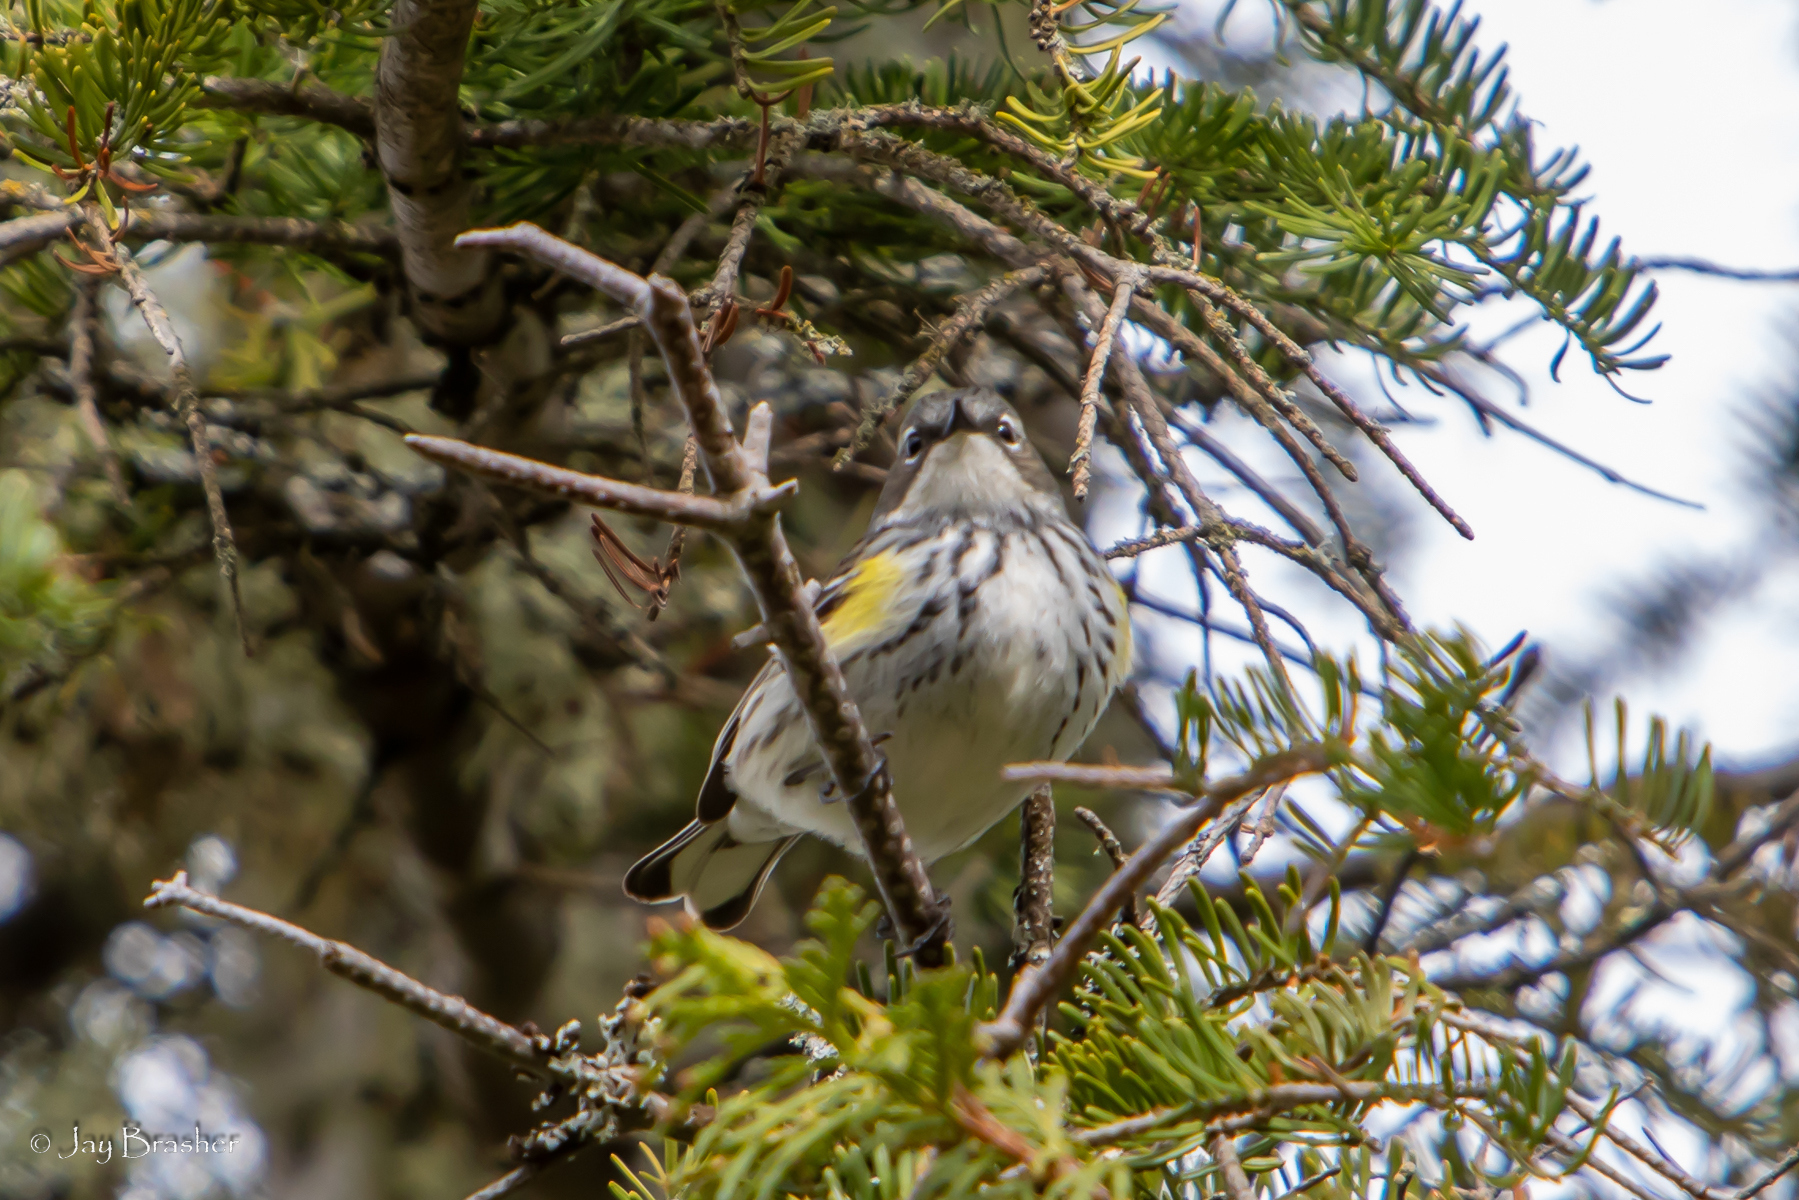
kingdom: Animalia
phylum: Chordata
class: Aves
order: Passeriformes
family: Parulidae
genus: Setophaga
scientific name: Setophaga coronata
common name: Myrtle warbler
